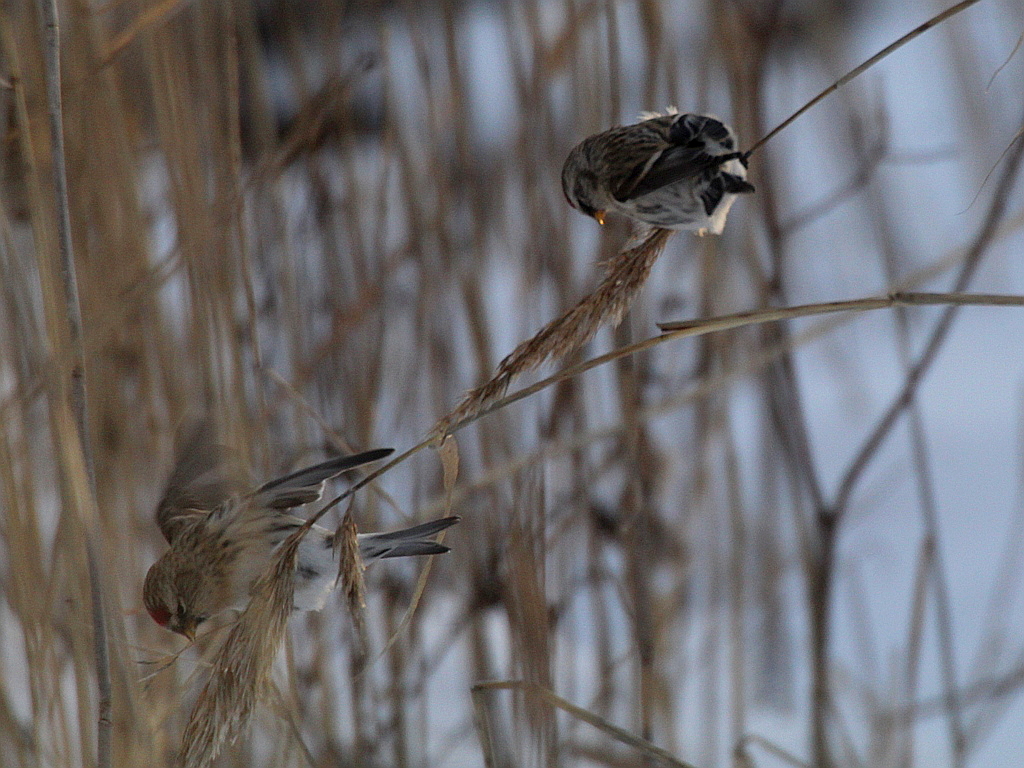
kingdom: Animalia
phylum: Chordata
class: Aves
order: Passeriformes
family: Fringillidae
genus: Acanthis
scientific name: Acanthis flammea
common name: Common redpoll
